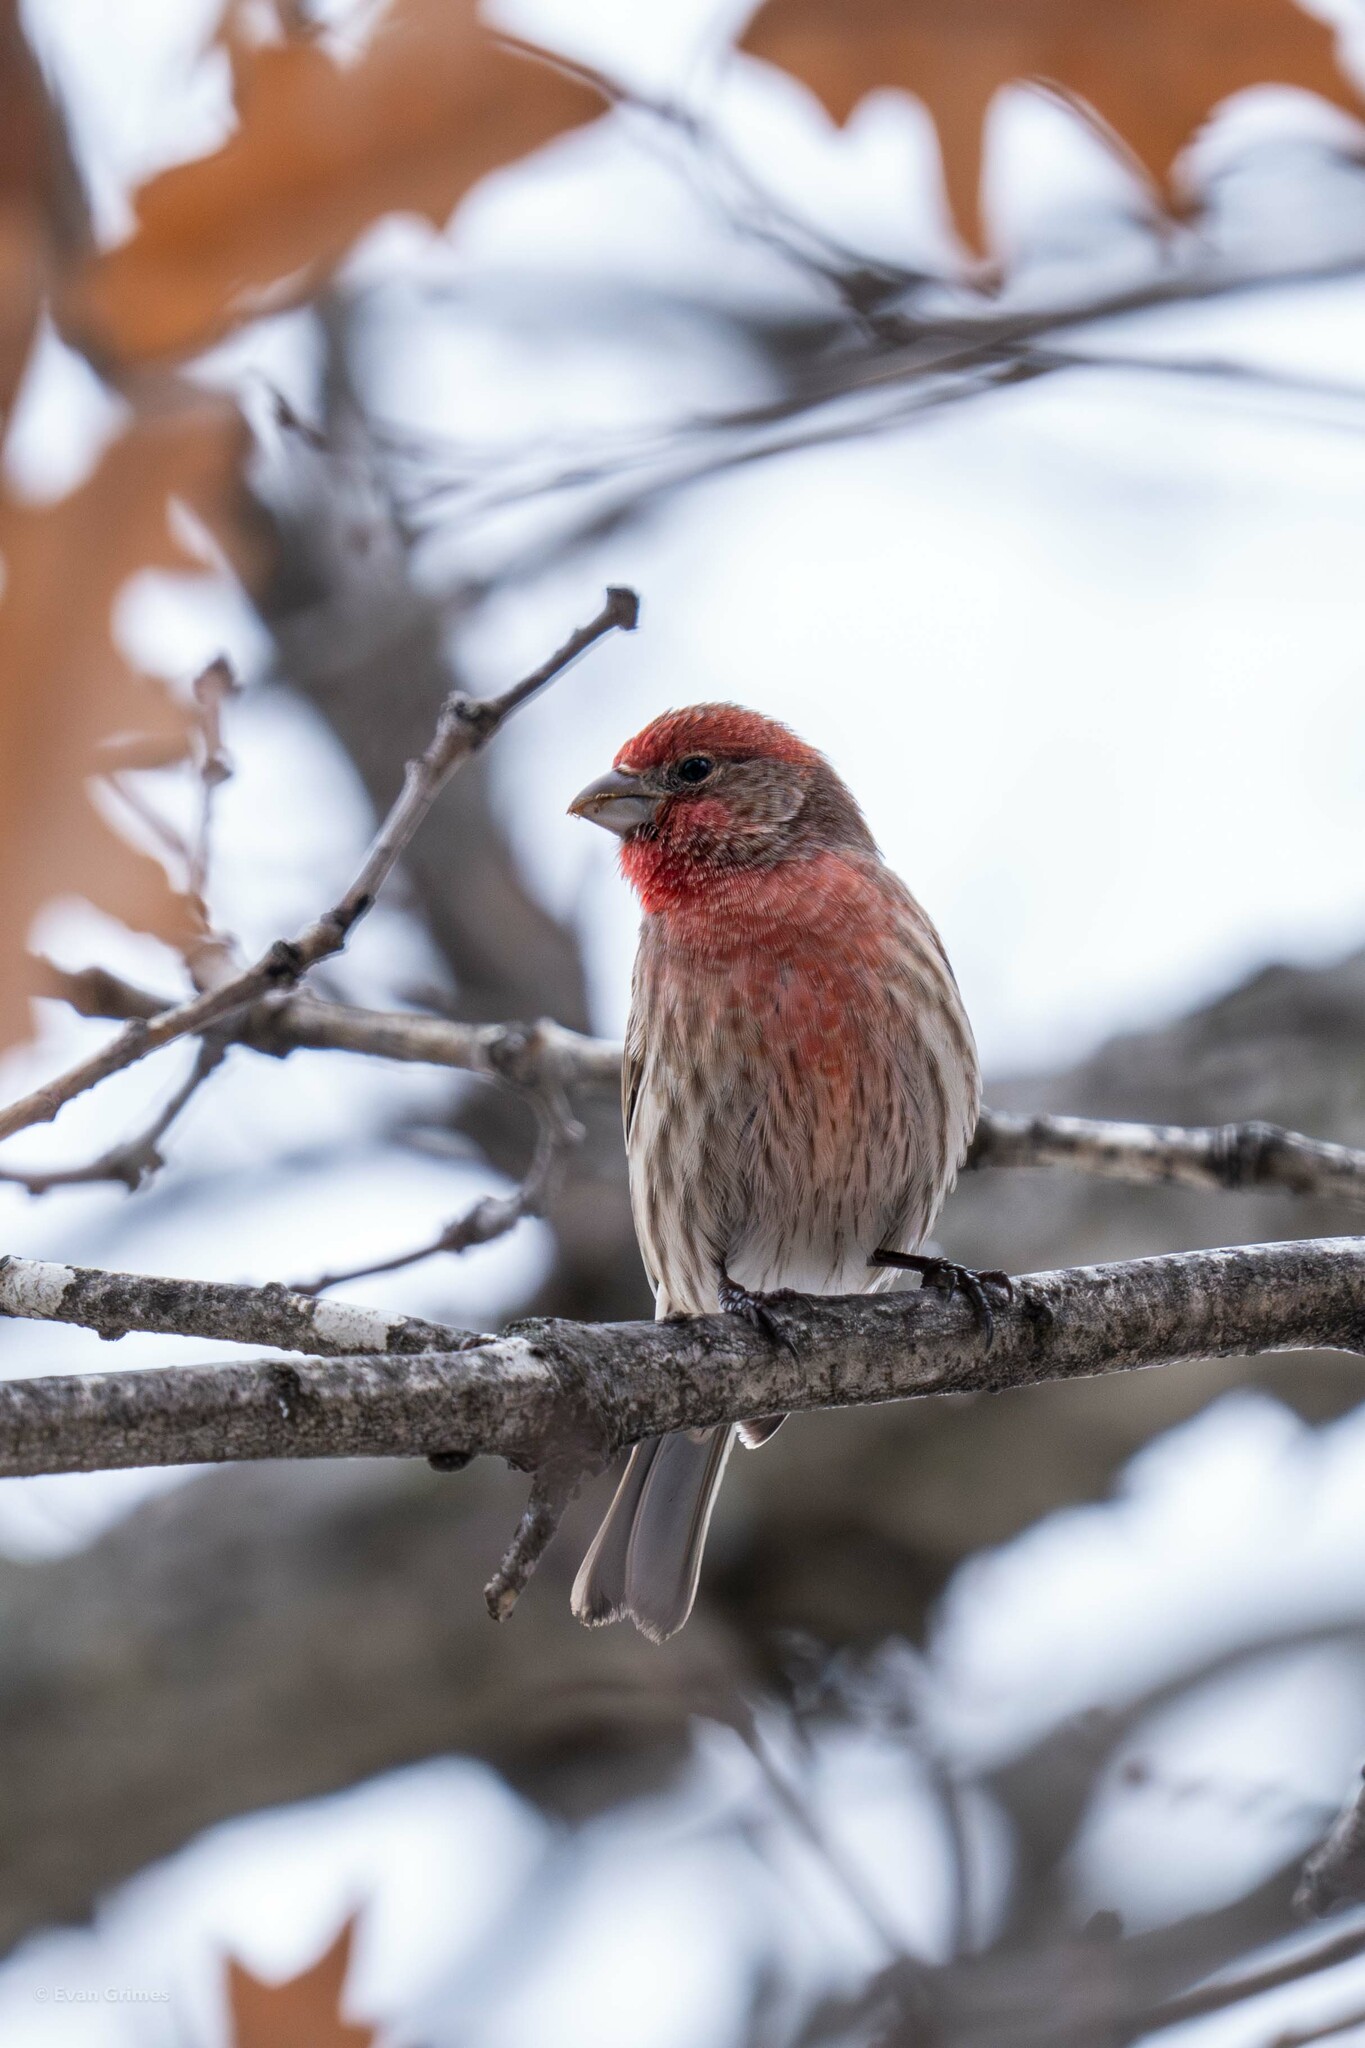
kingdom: Animalia
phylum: Chordata
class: Aves
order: Passeriformes
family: Fringillidae
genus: Haemorhous
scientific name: Haemorhous mexicanus
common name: House finch
